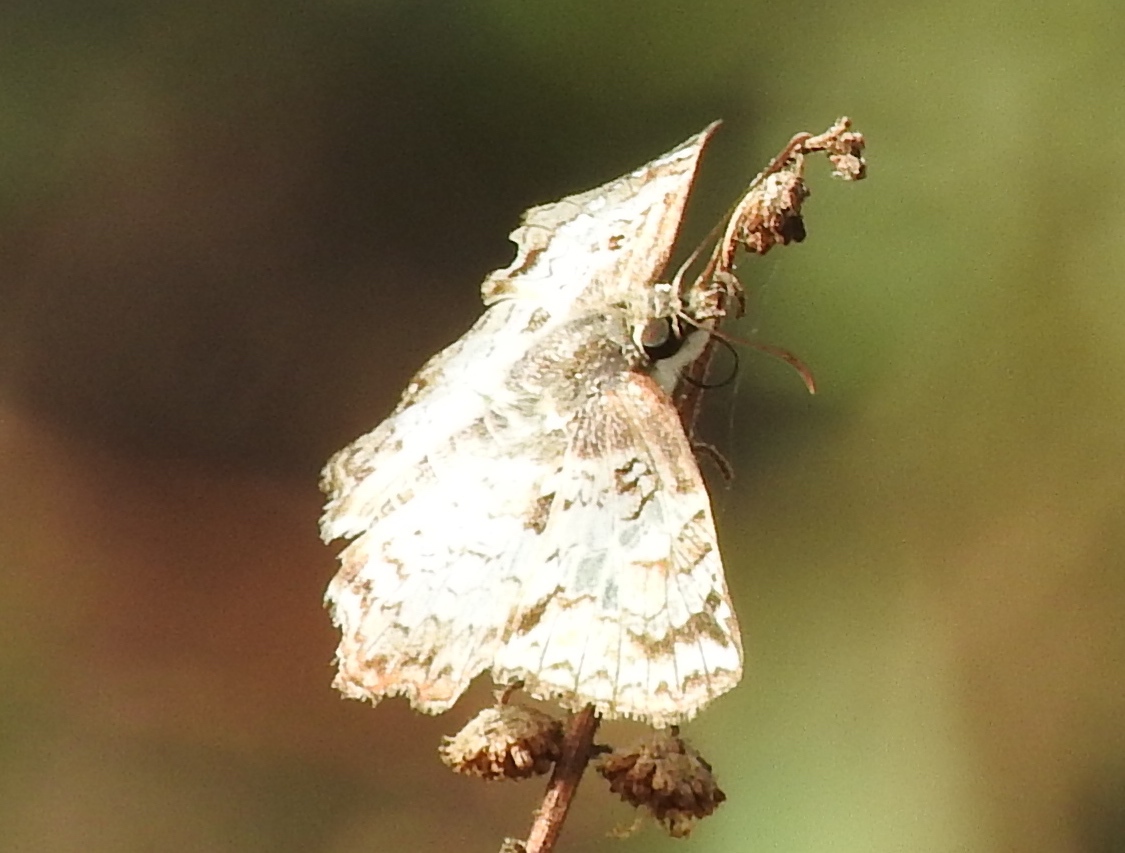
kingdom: Animalia
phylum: Arthropoda
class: Insecta
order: Lepidoptera
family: Hesperiidae
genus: Antigonus
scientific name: Antigonus emorsa
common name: White spurwing
